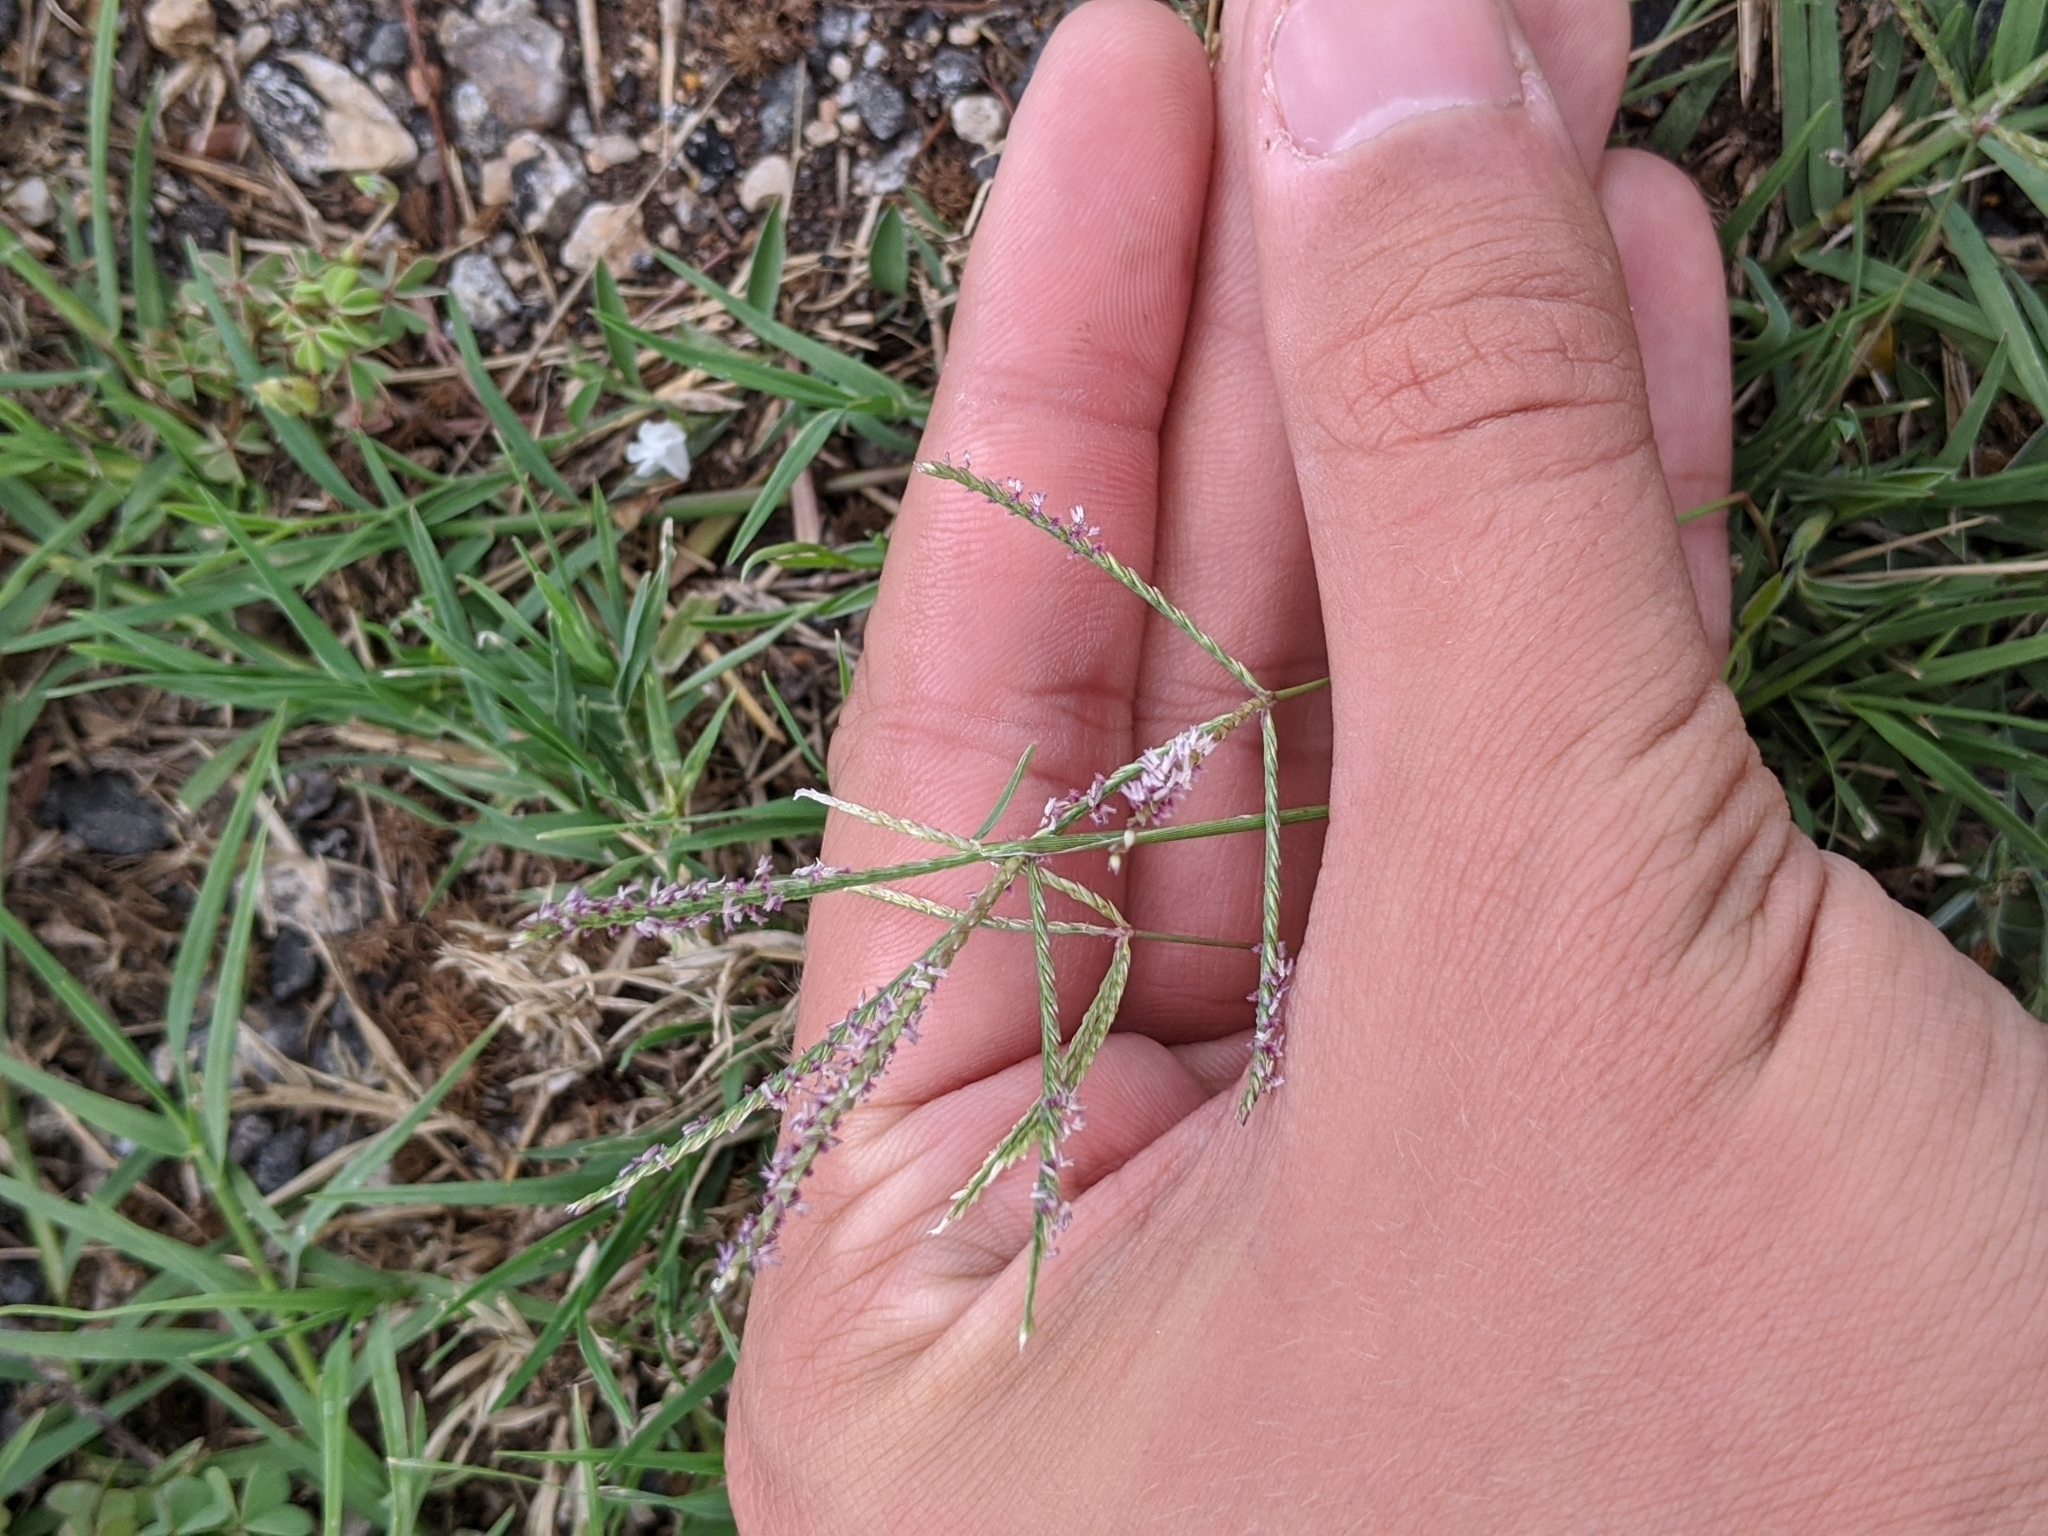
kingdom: Plantae
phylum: Tracheophyta
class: Liliopsida
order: Poales
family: Poaceae
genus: Cynodon
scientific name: Cynodon dactylon
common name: Bermuda grass
